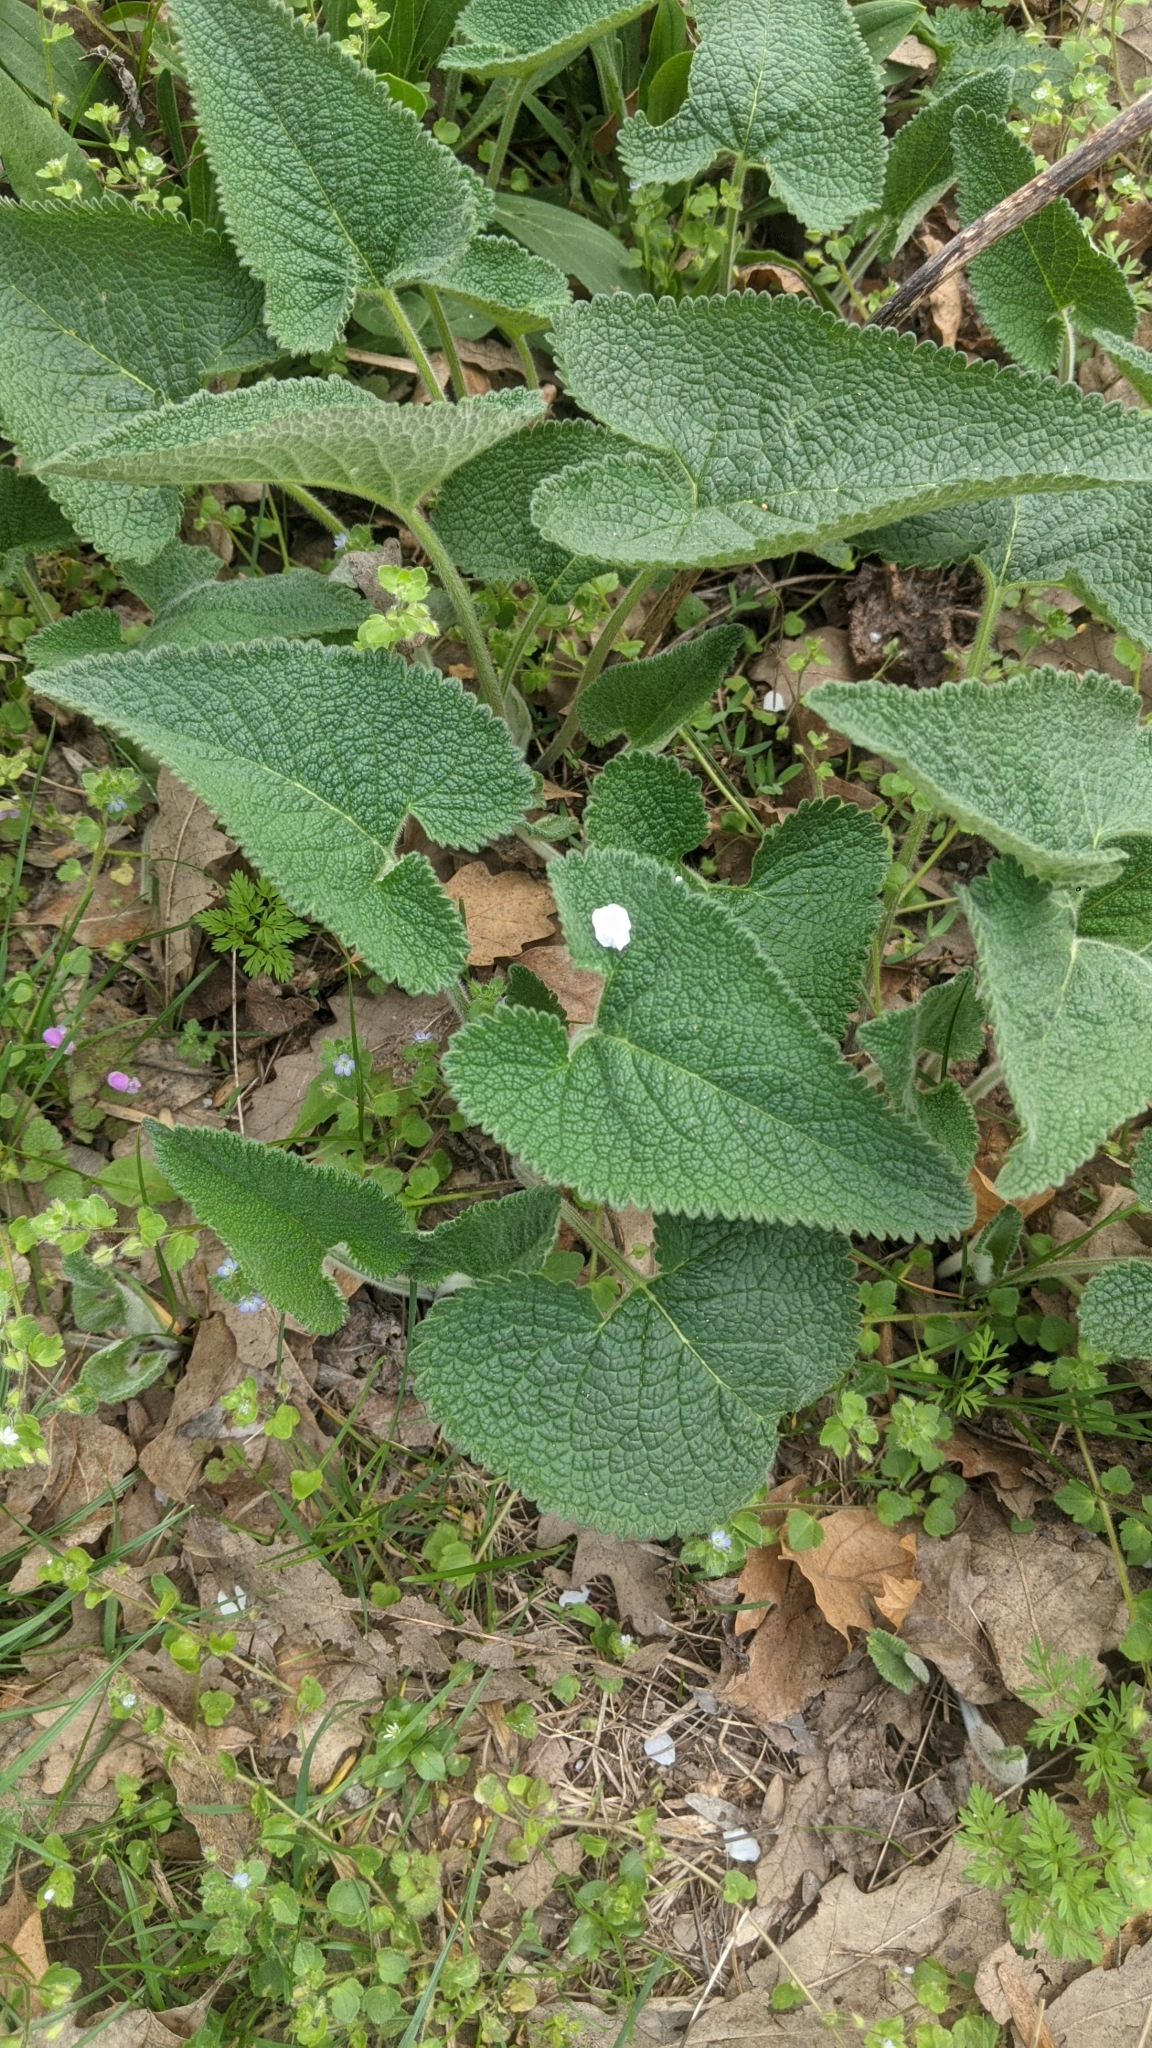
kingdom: Plantae
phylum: Tracheophyta
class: Magnoliopsida
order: Lamiales
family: Lamiaceae
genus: Phlomoides
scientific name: Phlomoides tuberosa
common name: Tuberous jerusalem sage
